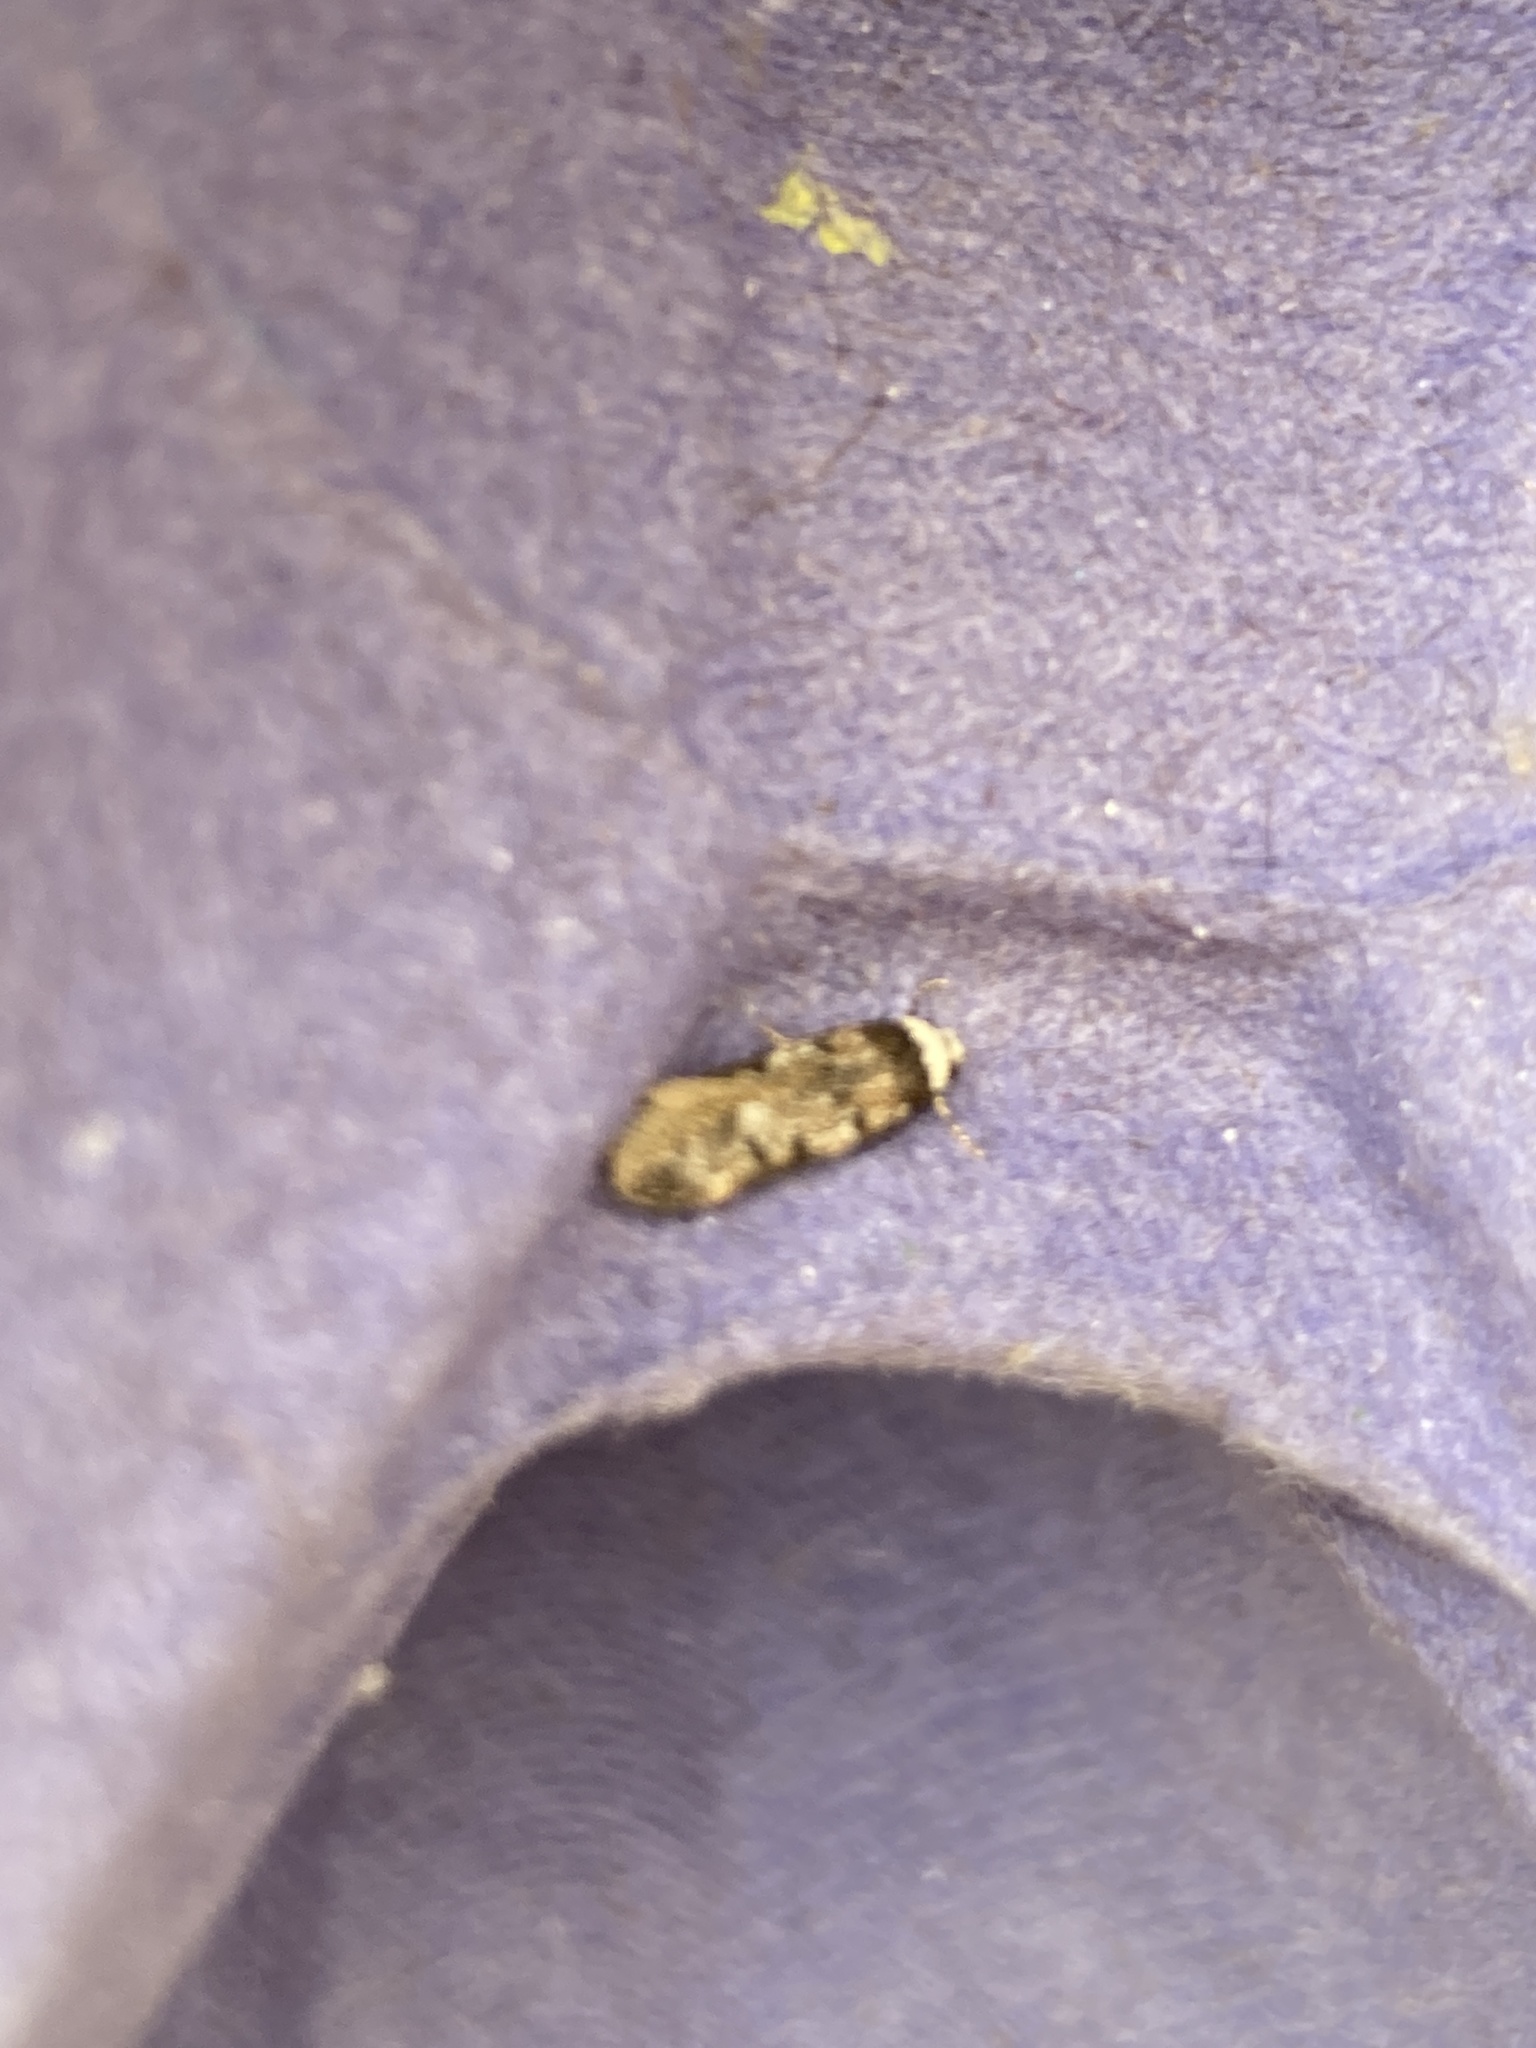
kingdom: Animalia
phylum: Arthropoda
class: Insecta
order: Lepidoptera
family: Oecophoridae
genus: Endrosis
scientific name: Endrosis sarcitrella
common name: White-shouldered house moth
